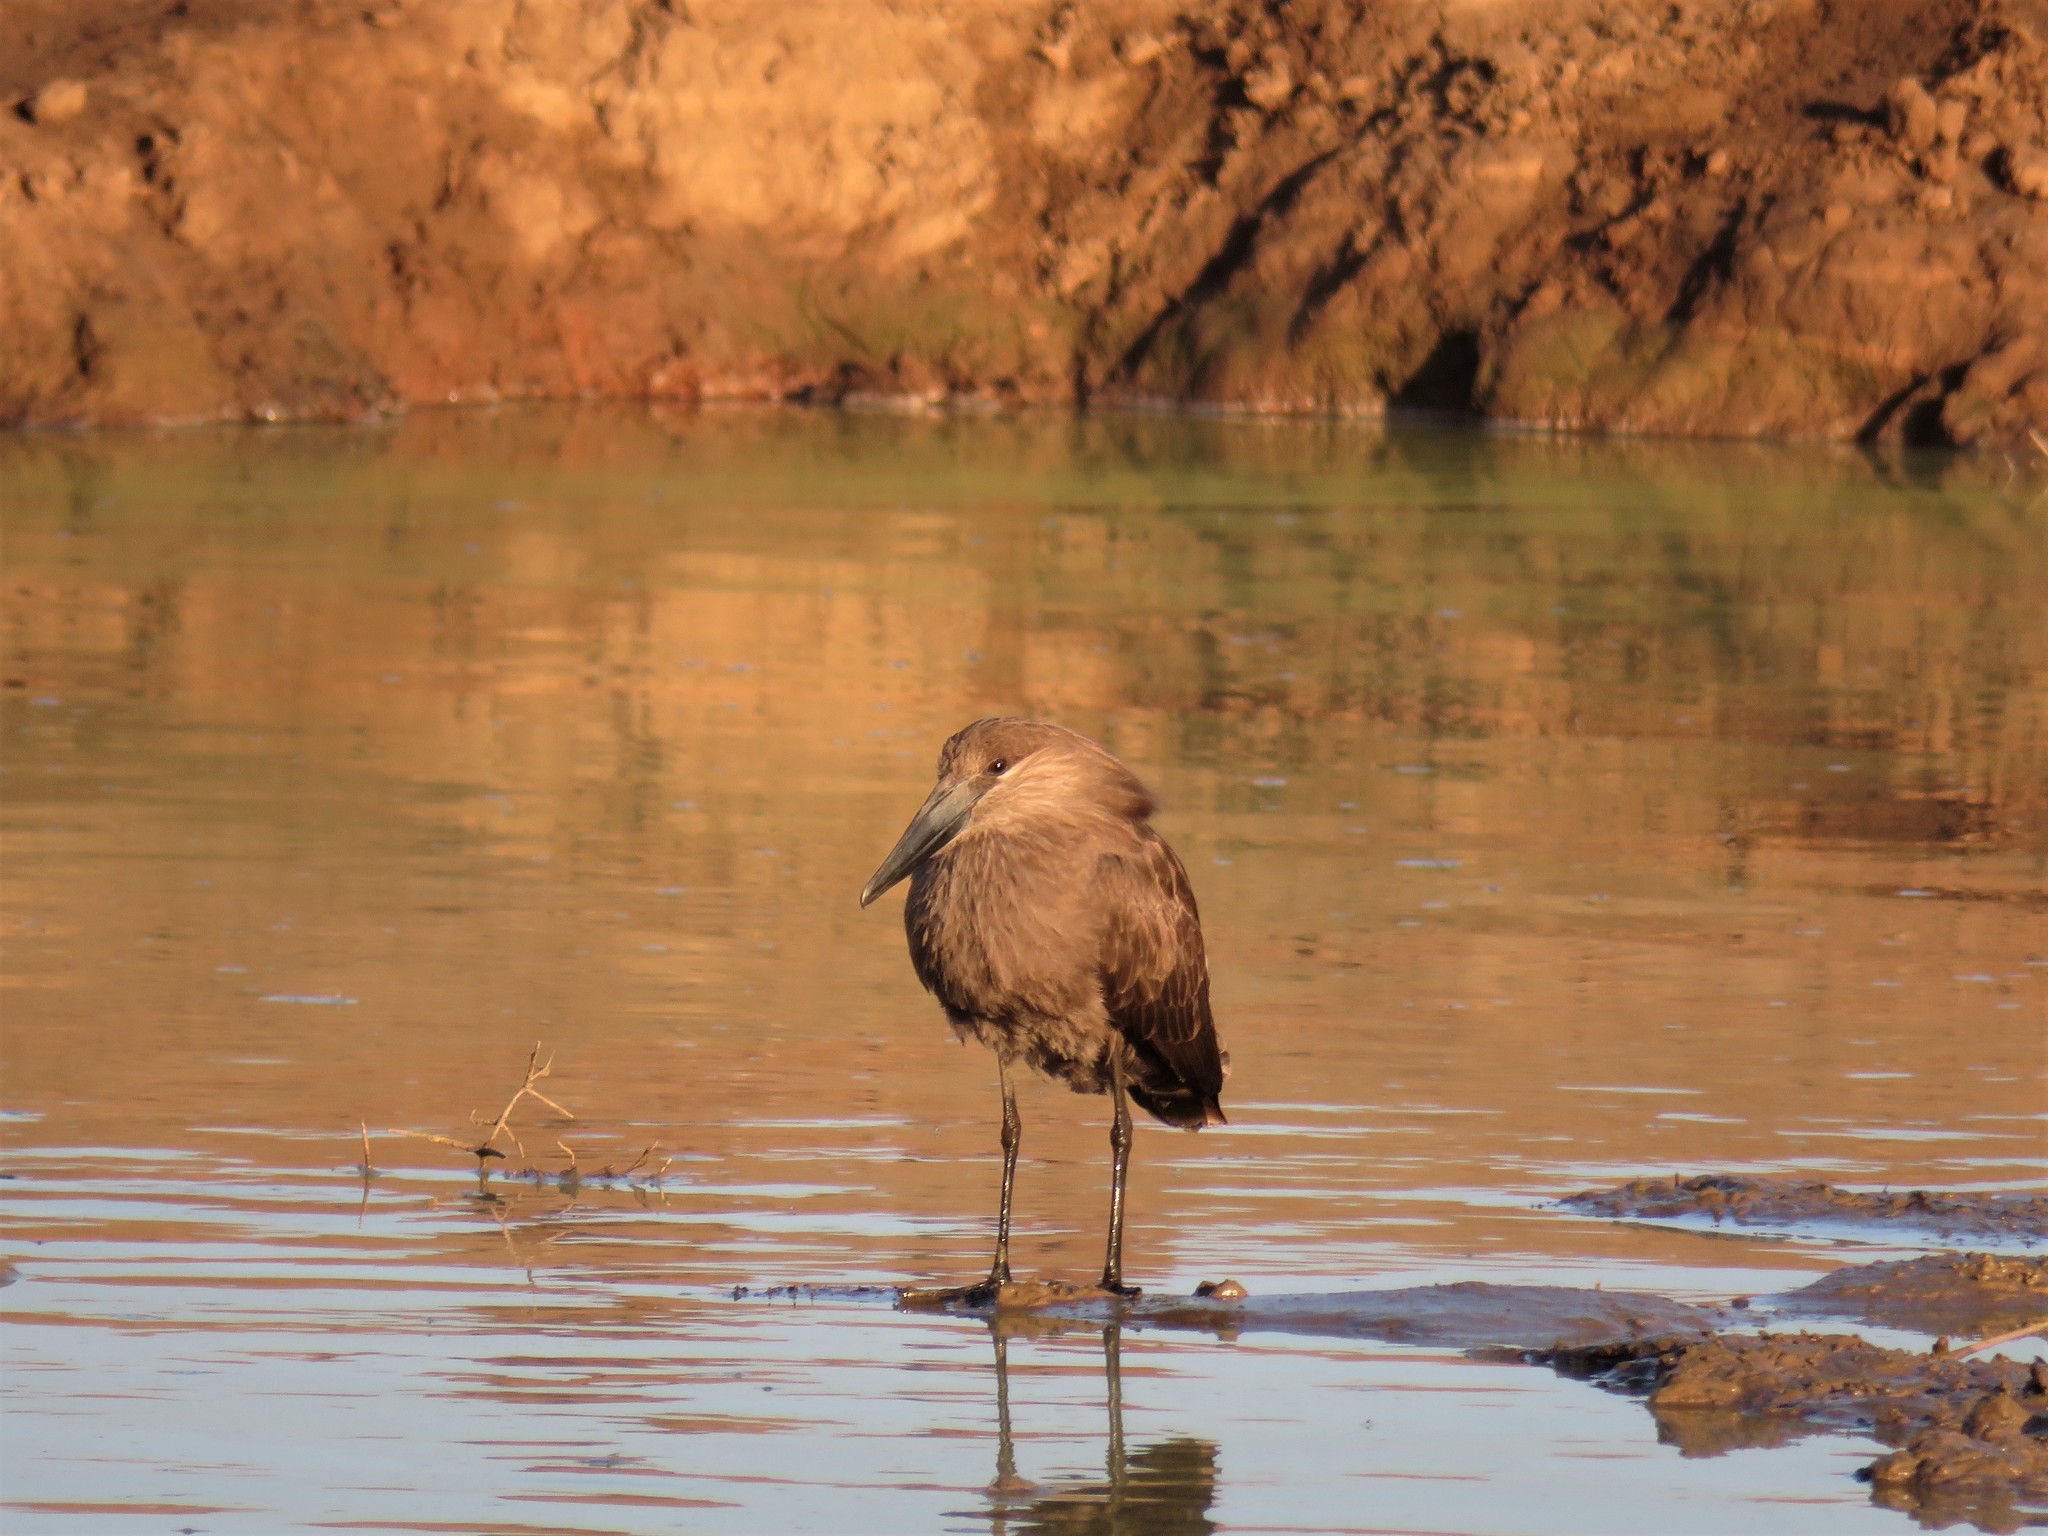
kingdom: Animalia
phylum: Chordata
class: Aves
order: Pelecaniformes
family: Scopidae
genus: Scopus
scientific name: Scopus umbretta
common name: Hamerkop
